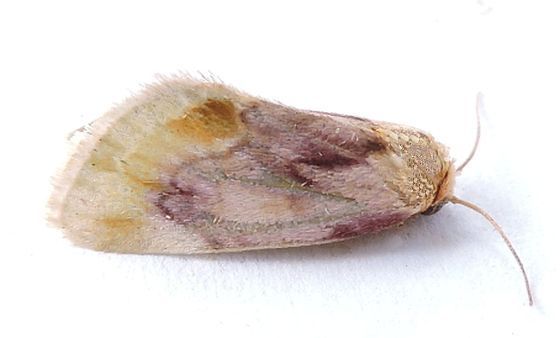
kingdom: Animalia
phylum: Arthropoda
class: Insecta
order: Lepidoptera
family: Noctuidae
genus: Chamaeclea
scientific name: Chamaeclea pernana
